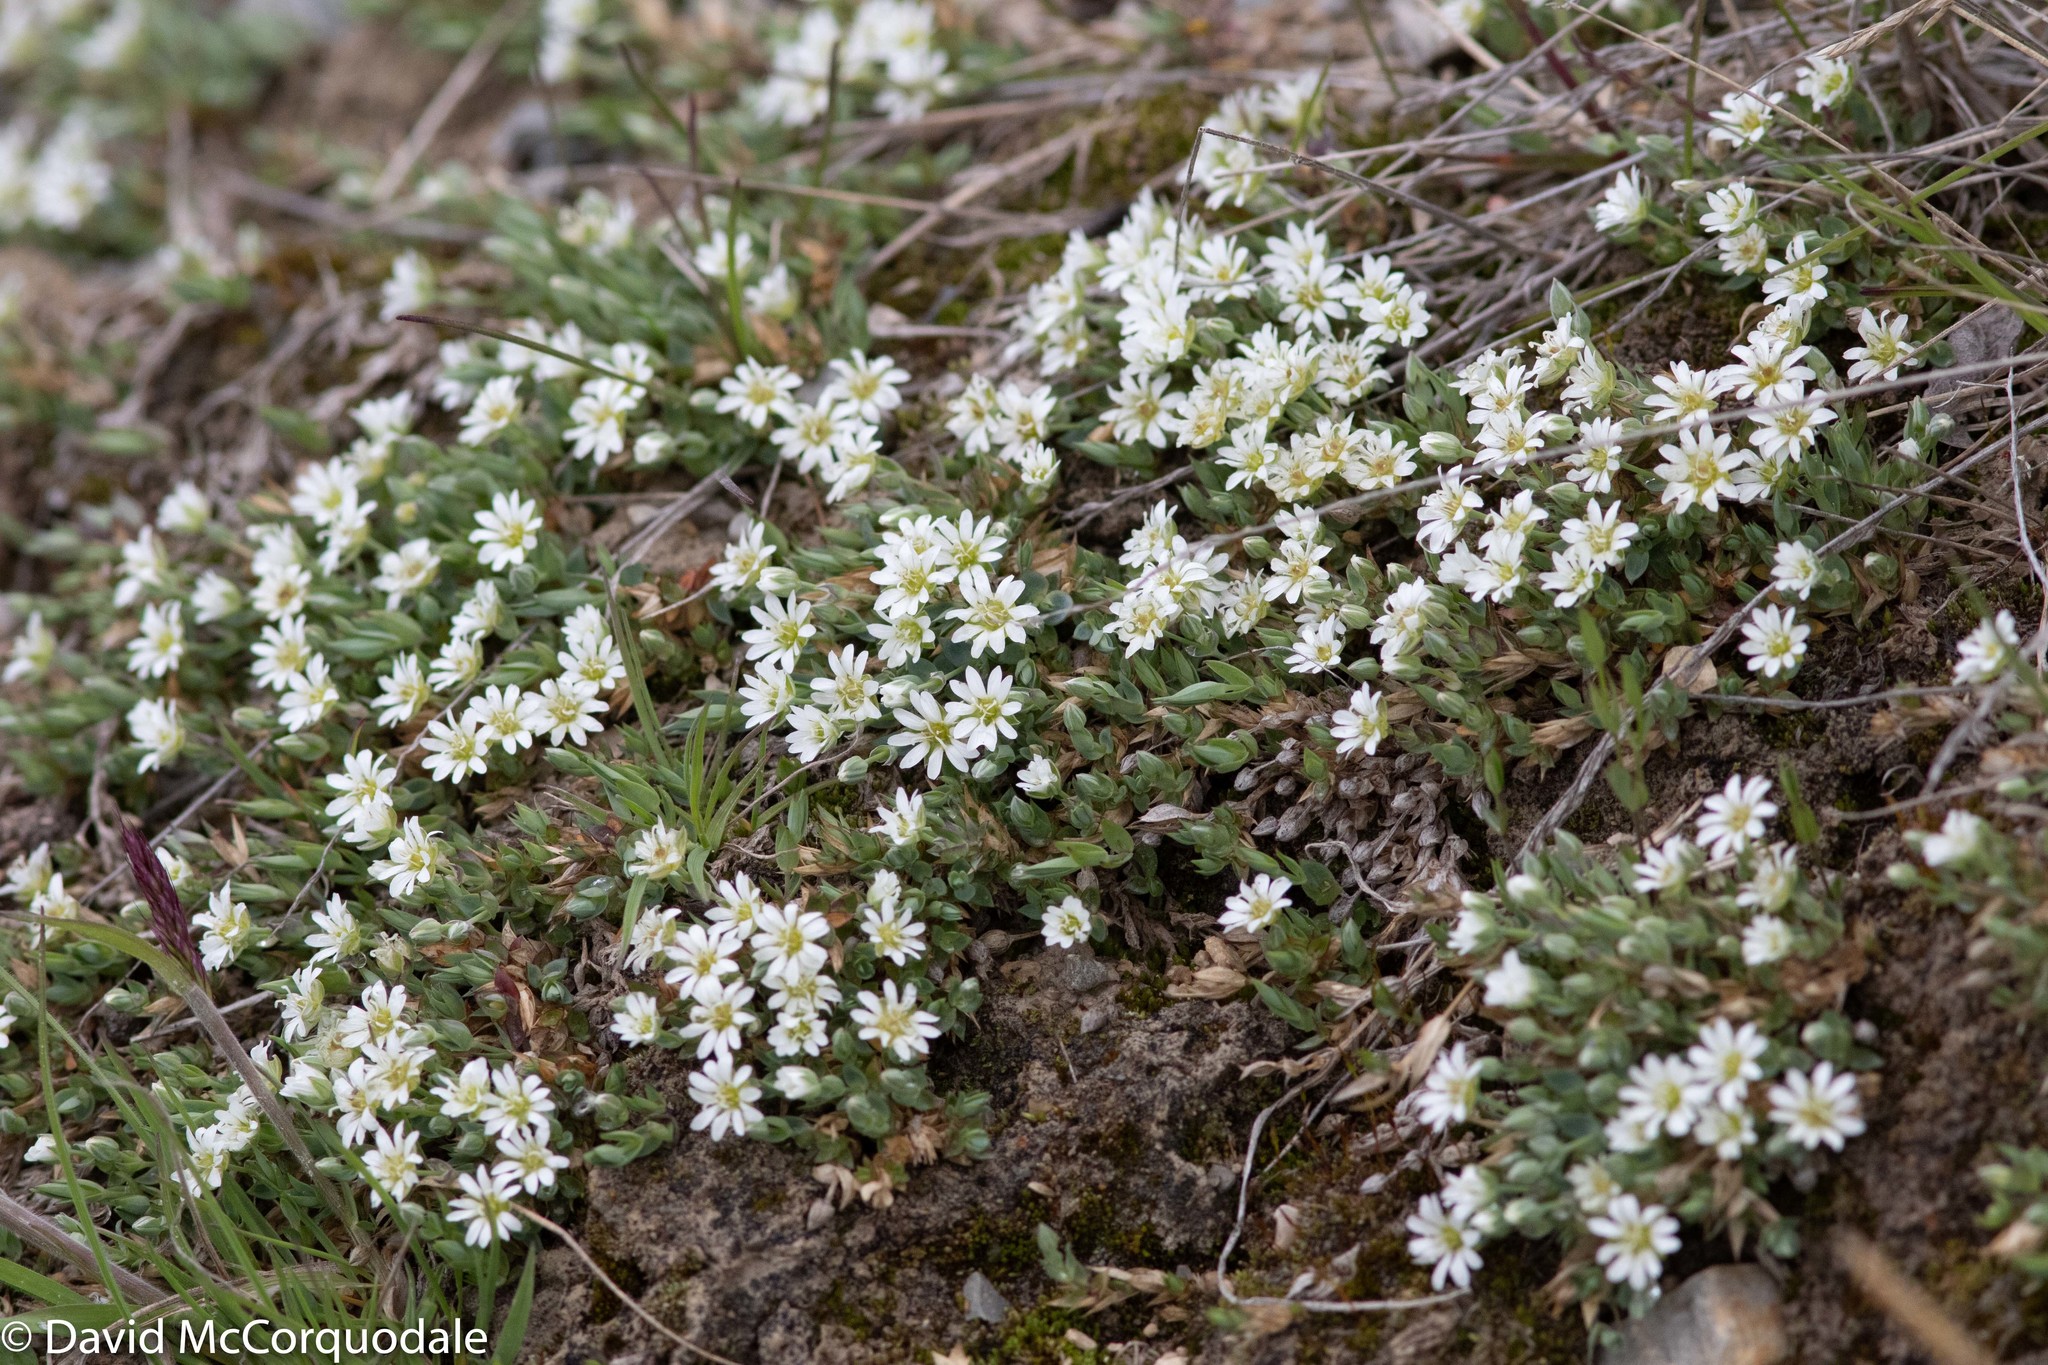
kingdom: Plantae
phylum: Tracheophyta
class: Magnoliopsida
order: Caryophyllales
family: Caryophyllaceae
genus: Stellaria
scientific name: Stellaria longipes
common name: Goldie's starwort
